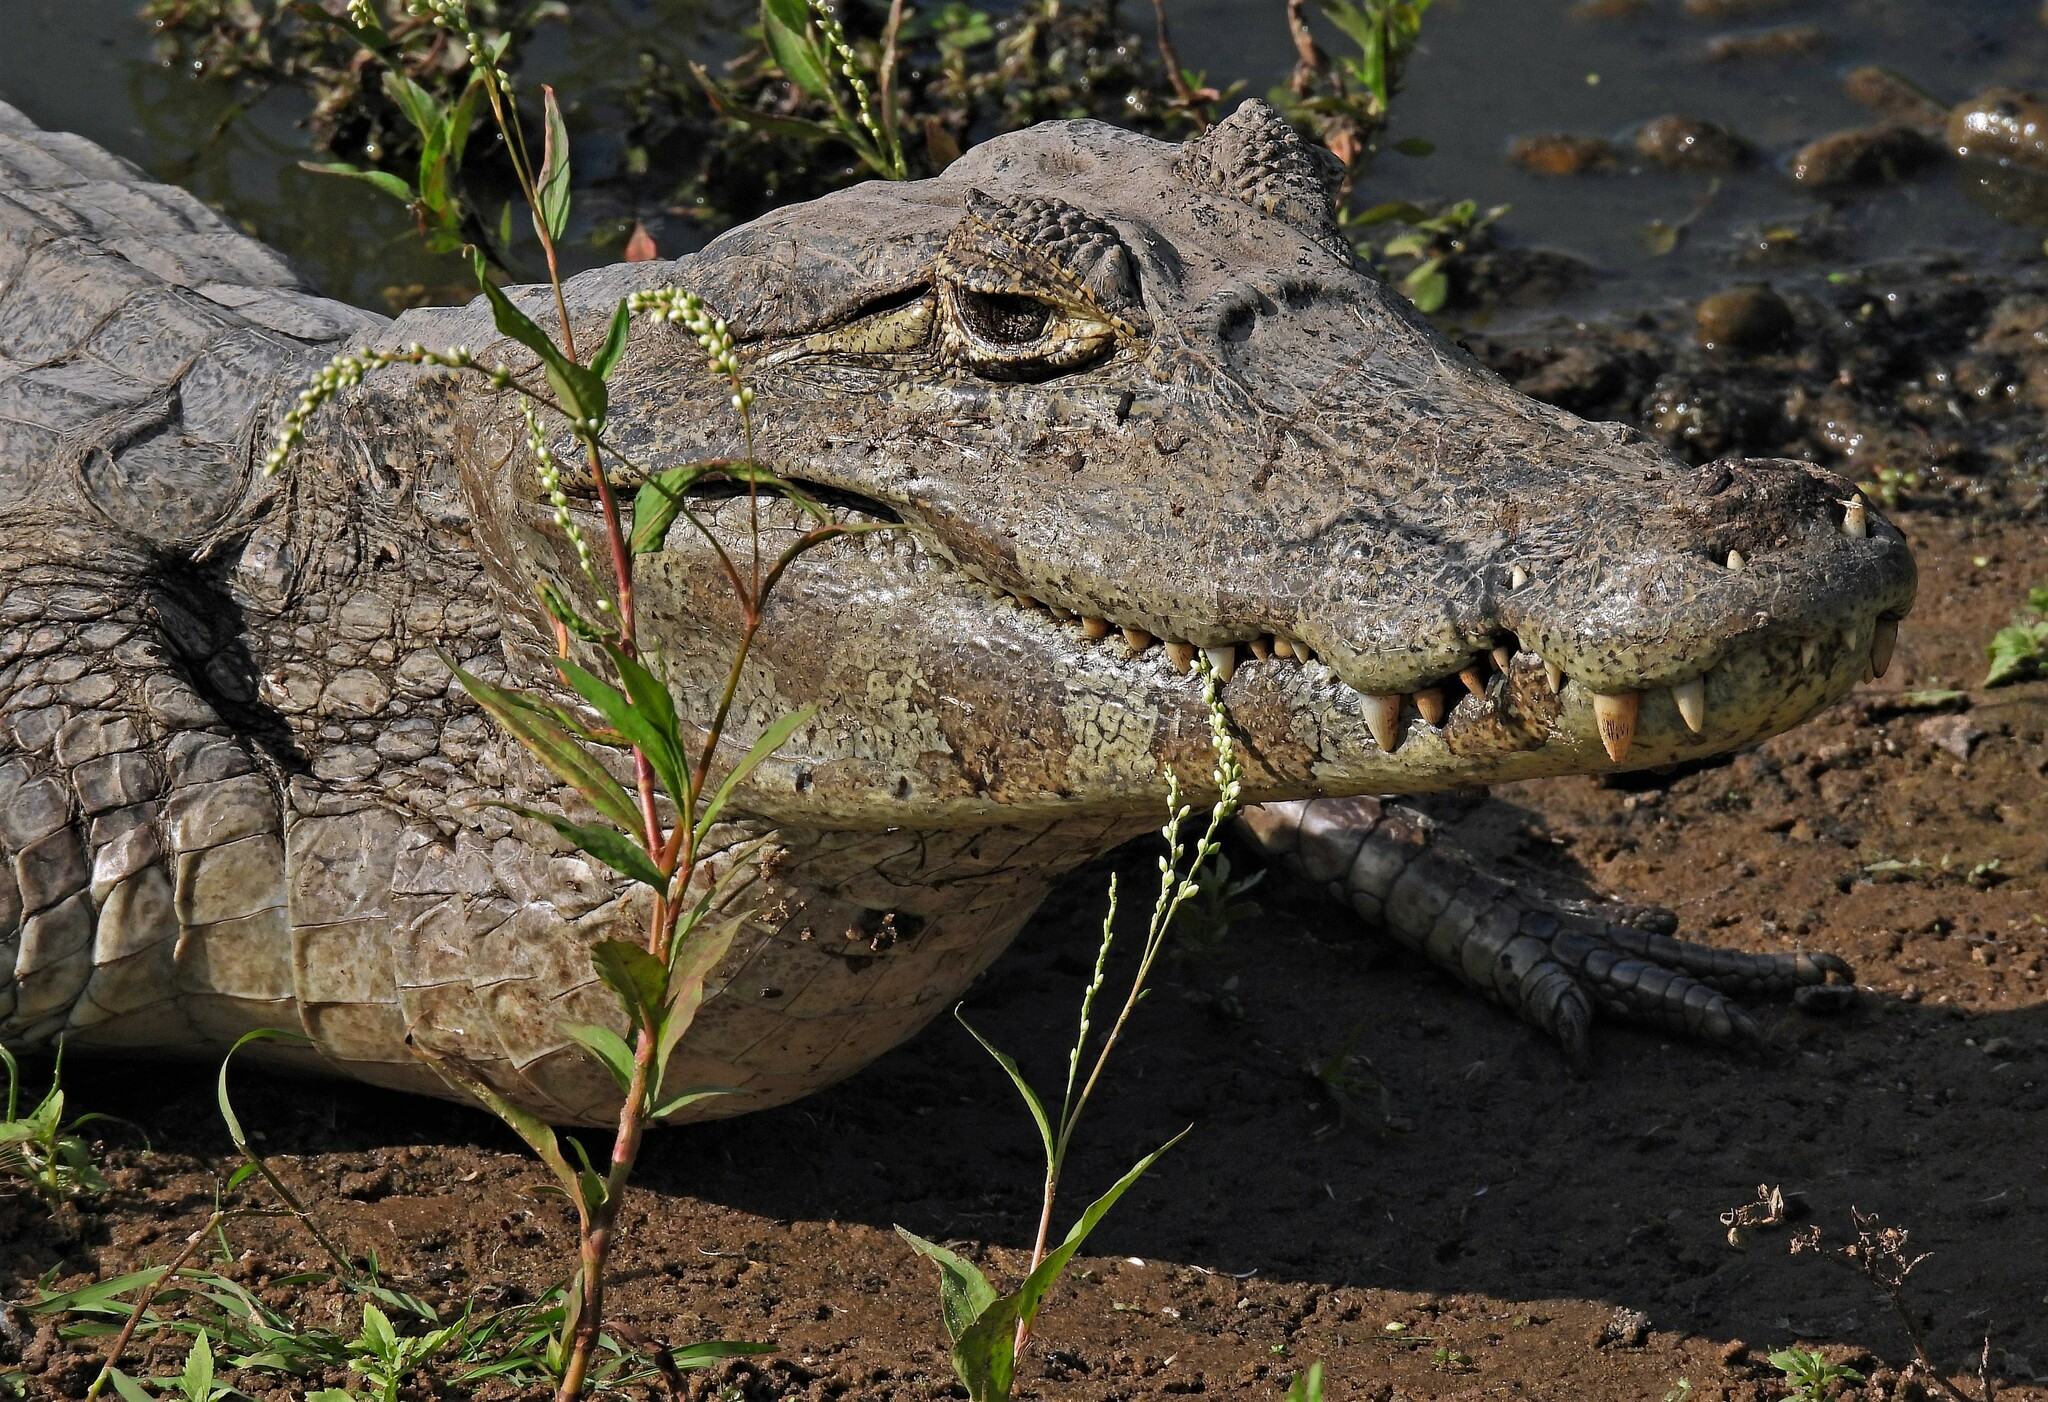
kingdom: Animalia
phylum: Chordata
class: Crocodylia
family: Alligatoridae
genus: Caiman
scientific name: Caiman latirostris
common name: Broad-snouted caiman
